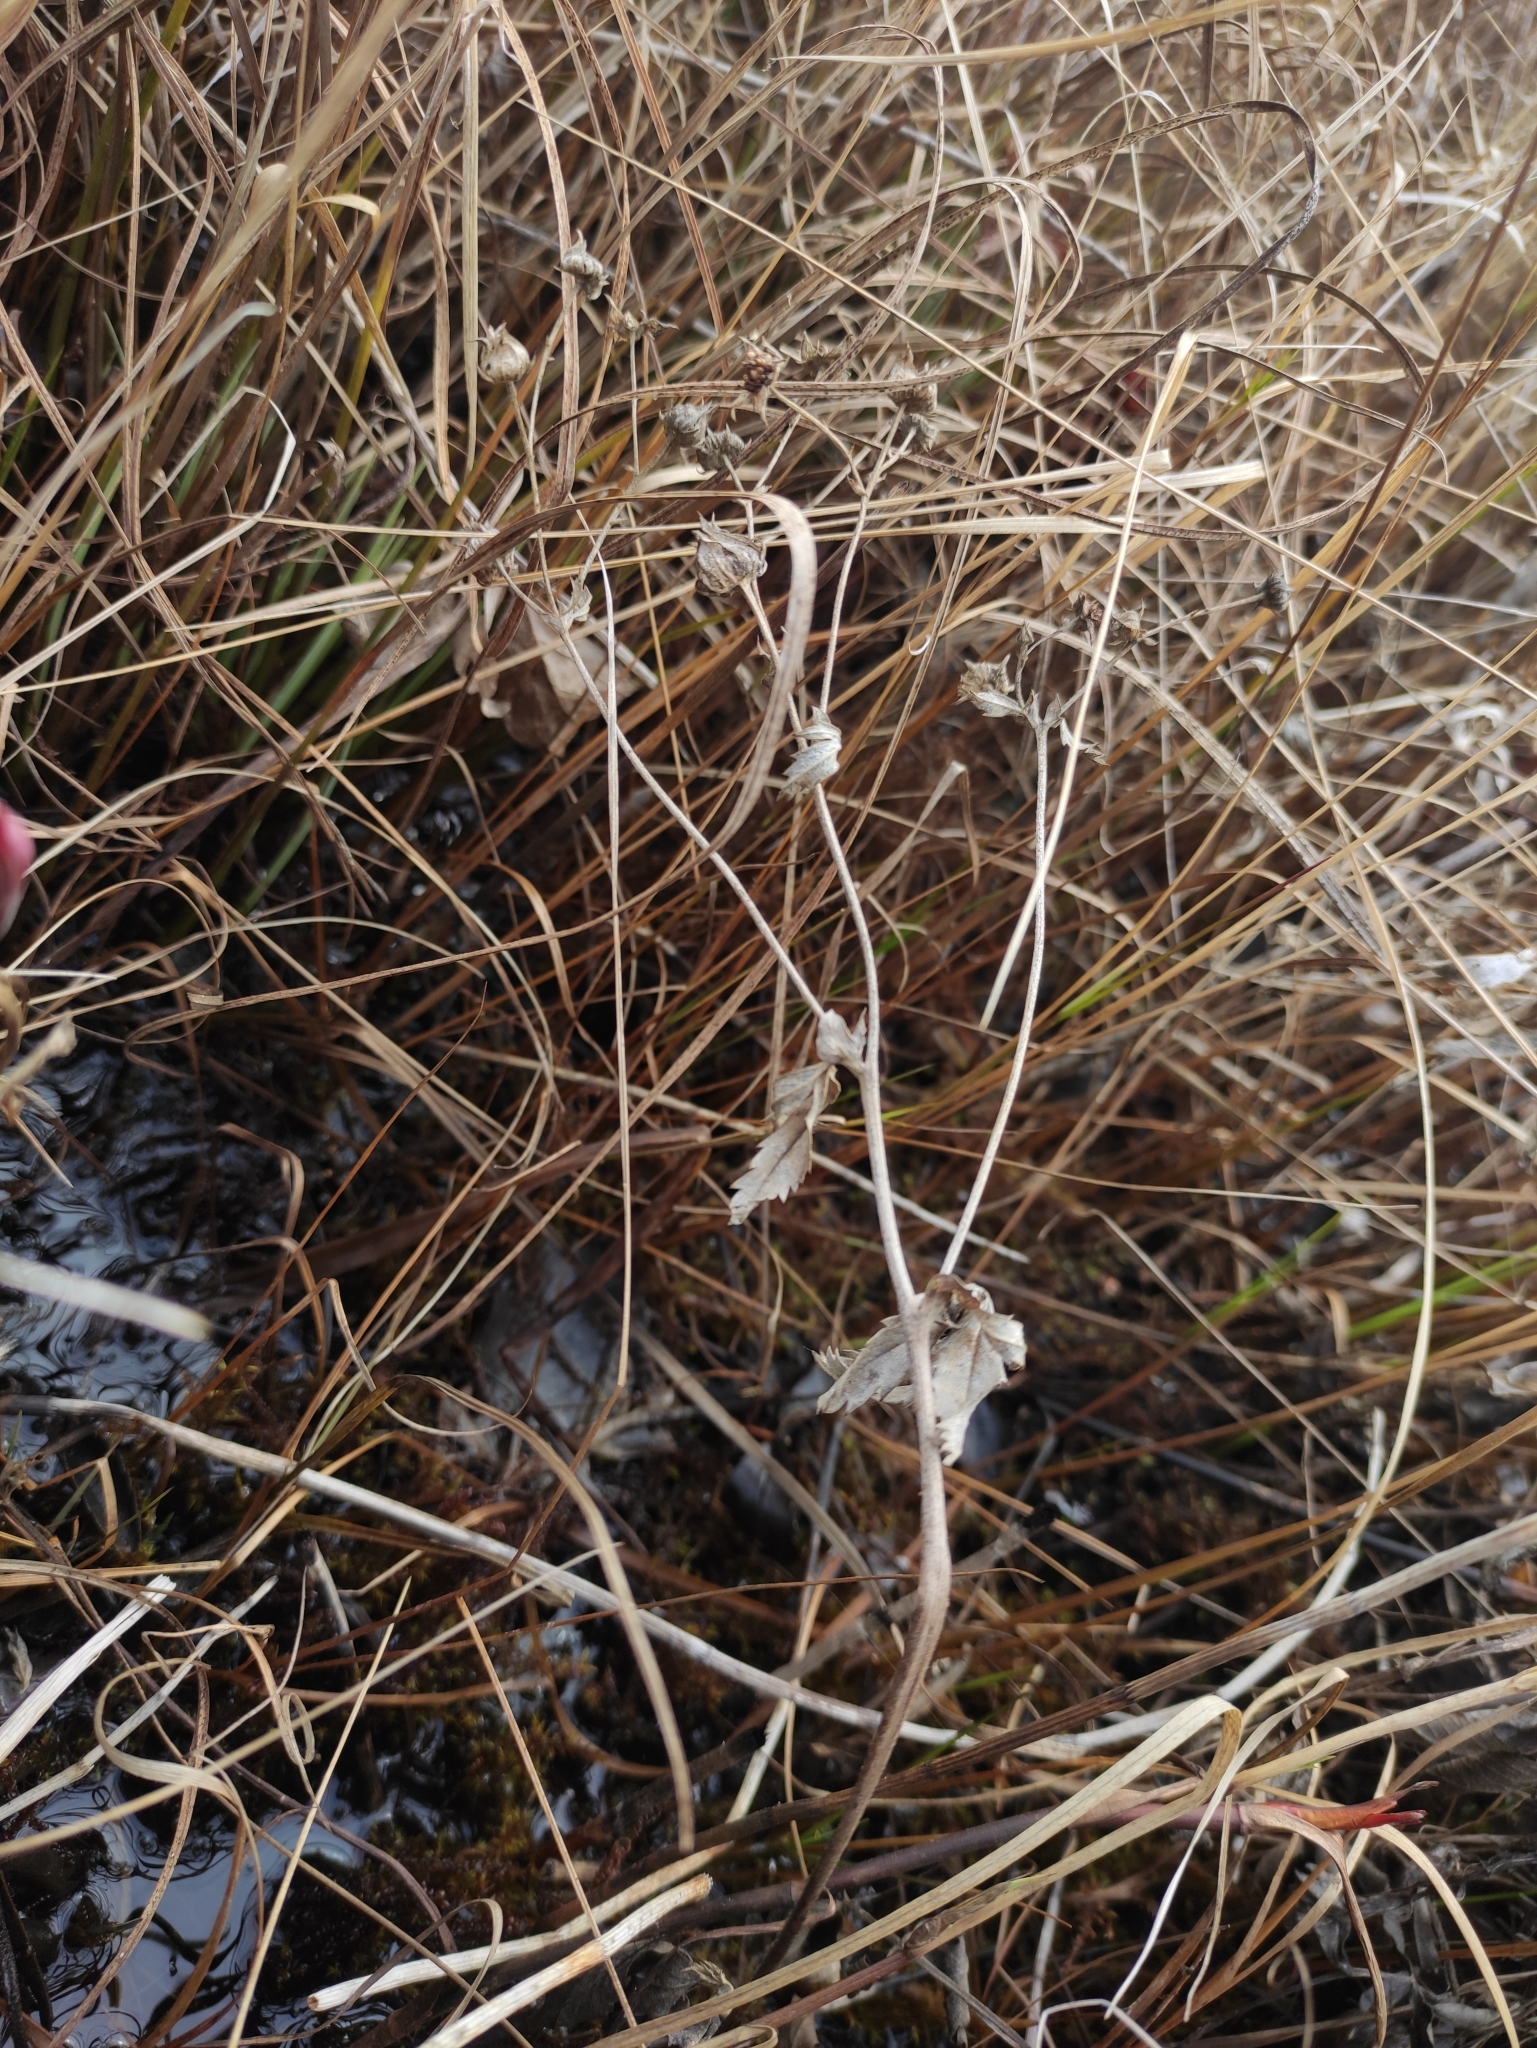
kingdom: Plantae
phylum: Tracheophyta
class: Magnoliopsida
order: Rosales
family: Rosaceae
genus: Comarum
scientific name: Comarum palustre
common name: Marsh cinquefoil
